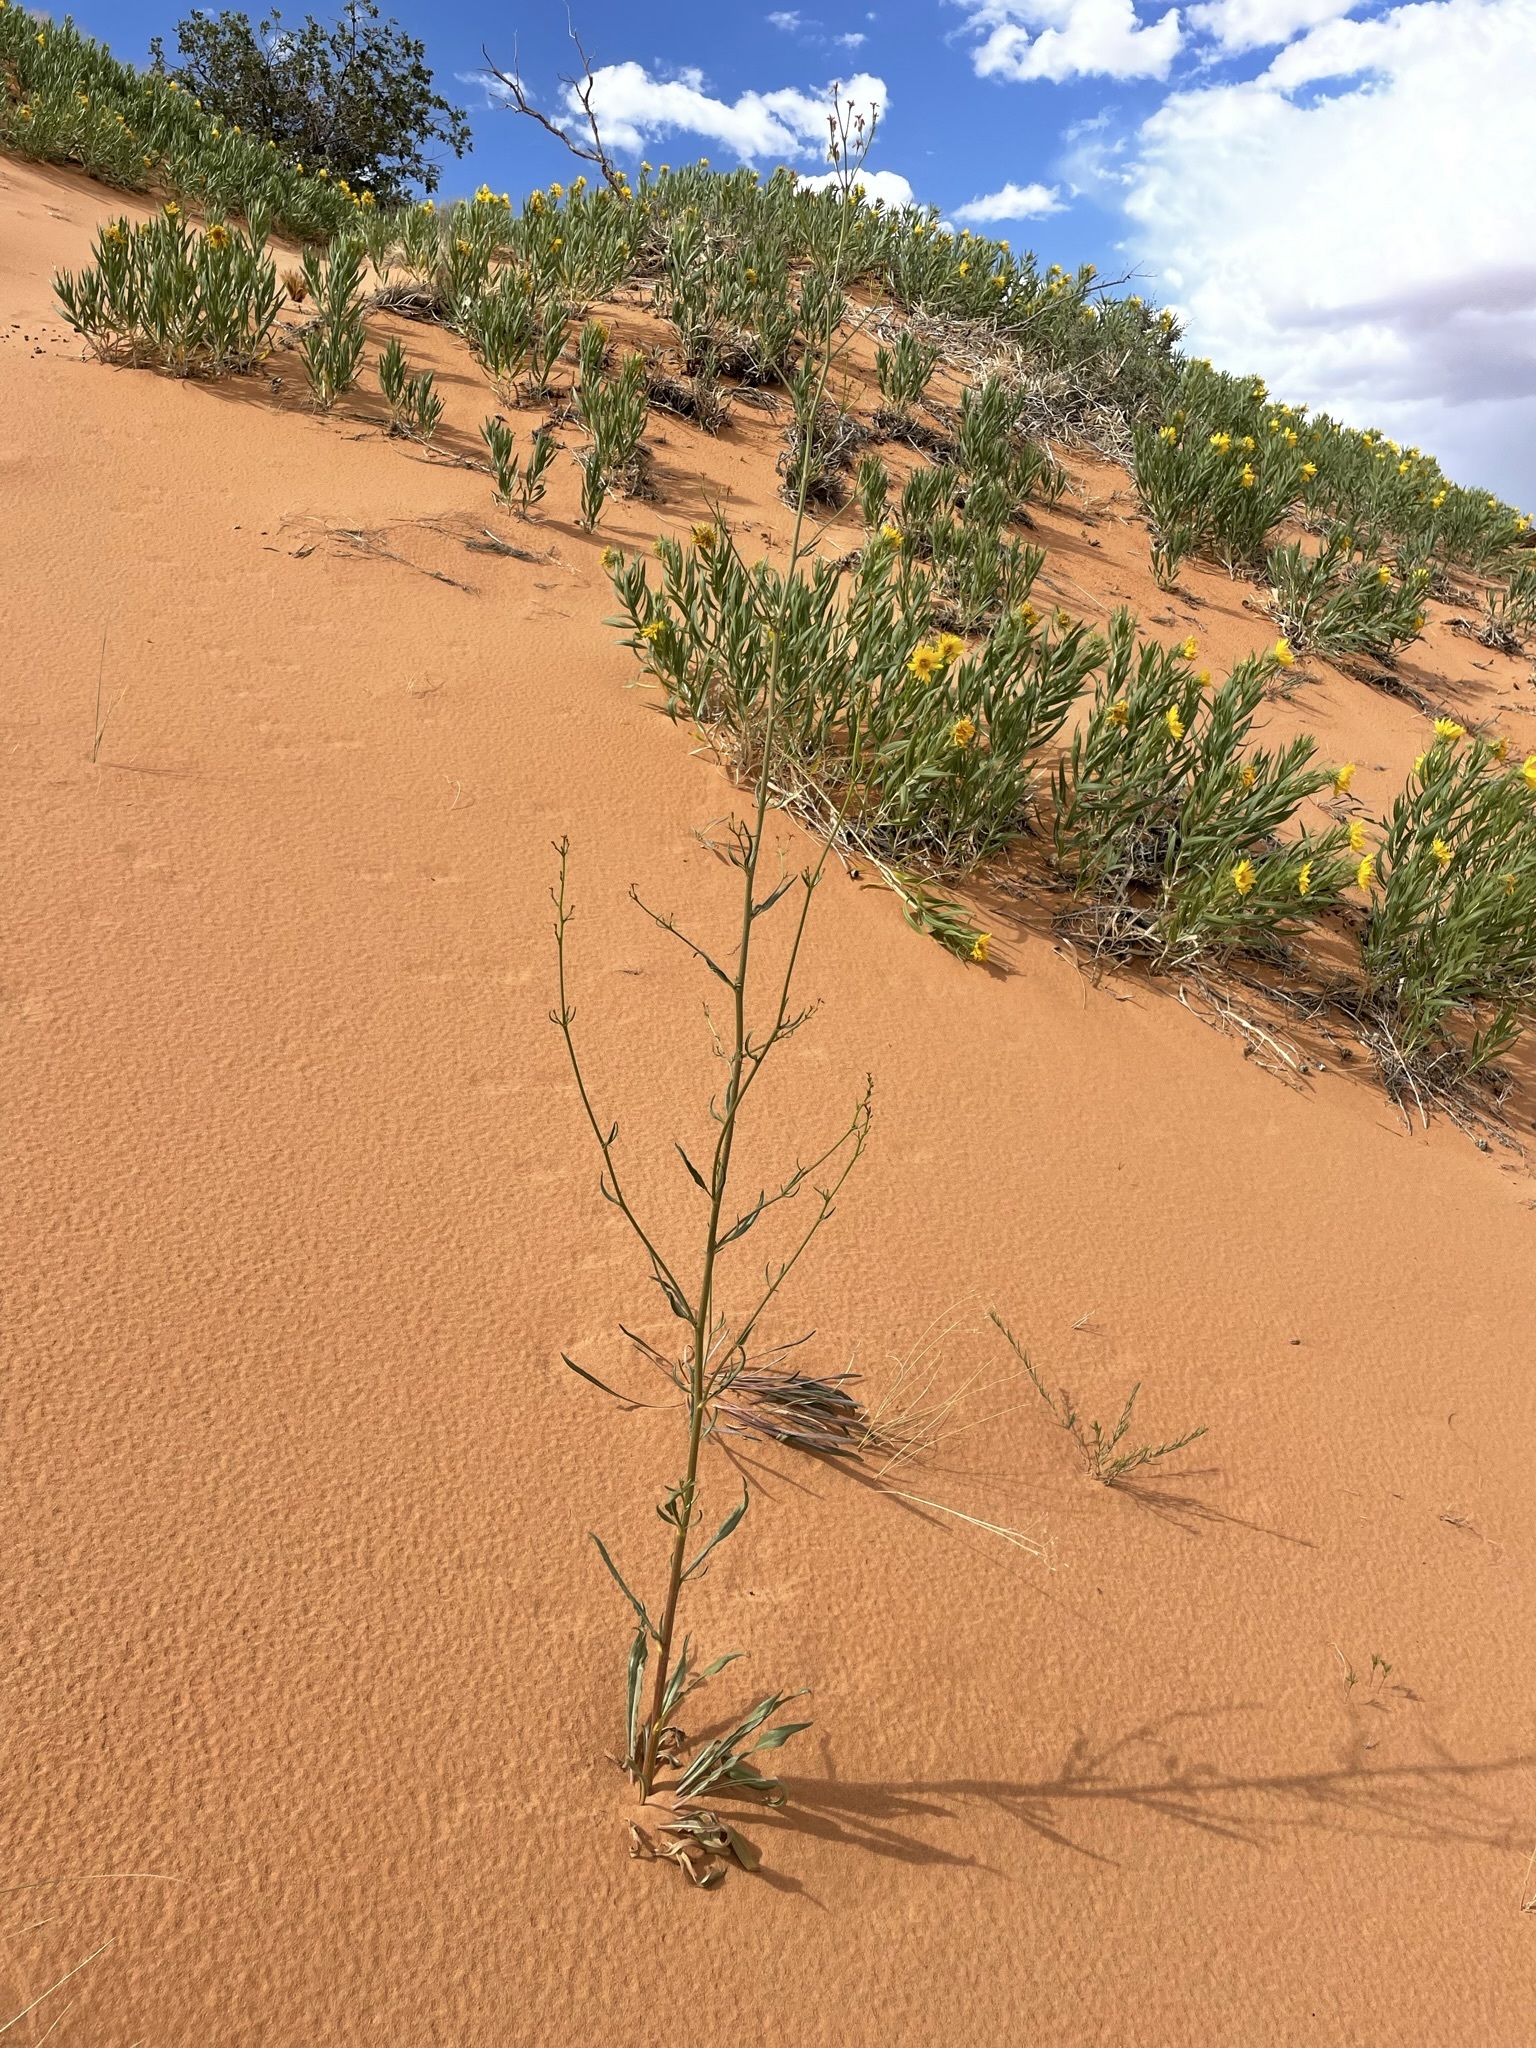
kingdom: Plantae
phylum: Tracheophyta
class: Magnoliopsida
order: Caryophyllales
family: Polygonaceae
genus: Eriogonum
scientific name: Eriogonum alatum
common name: Winged eriogonum
